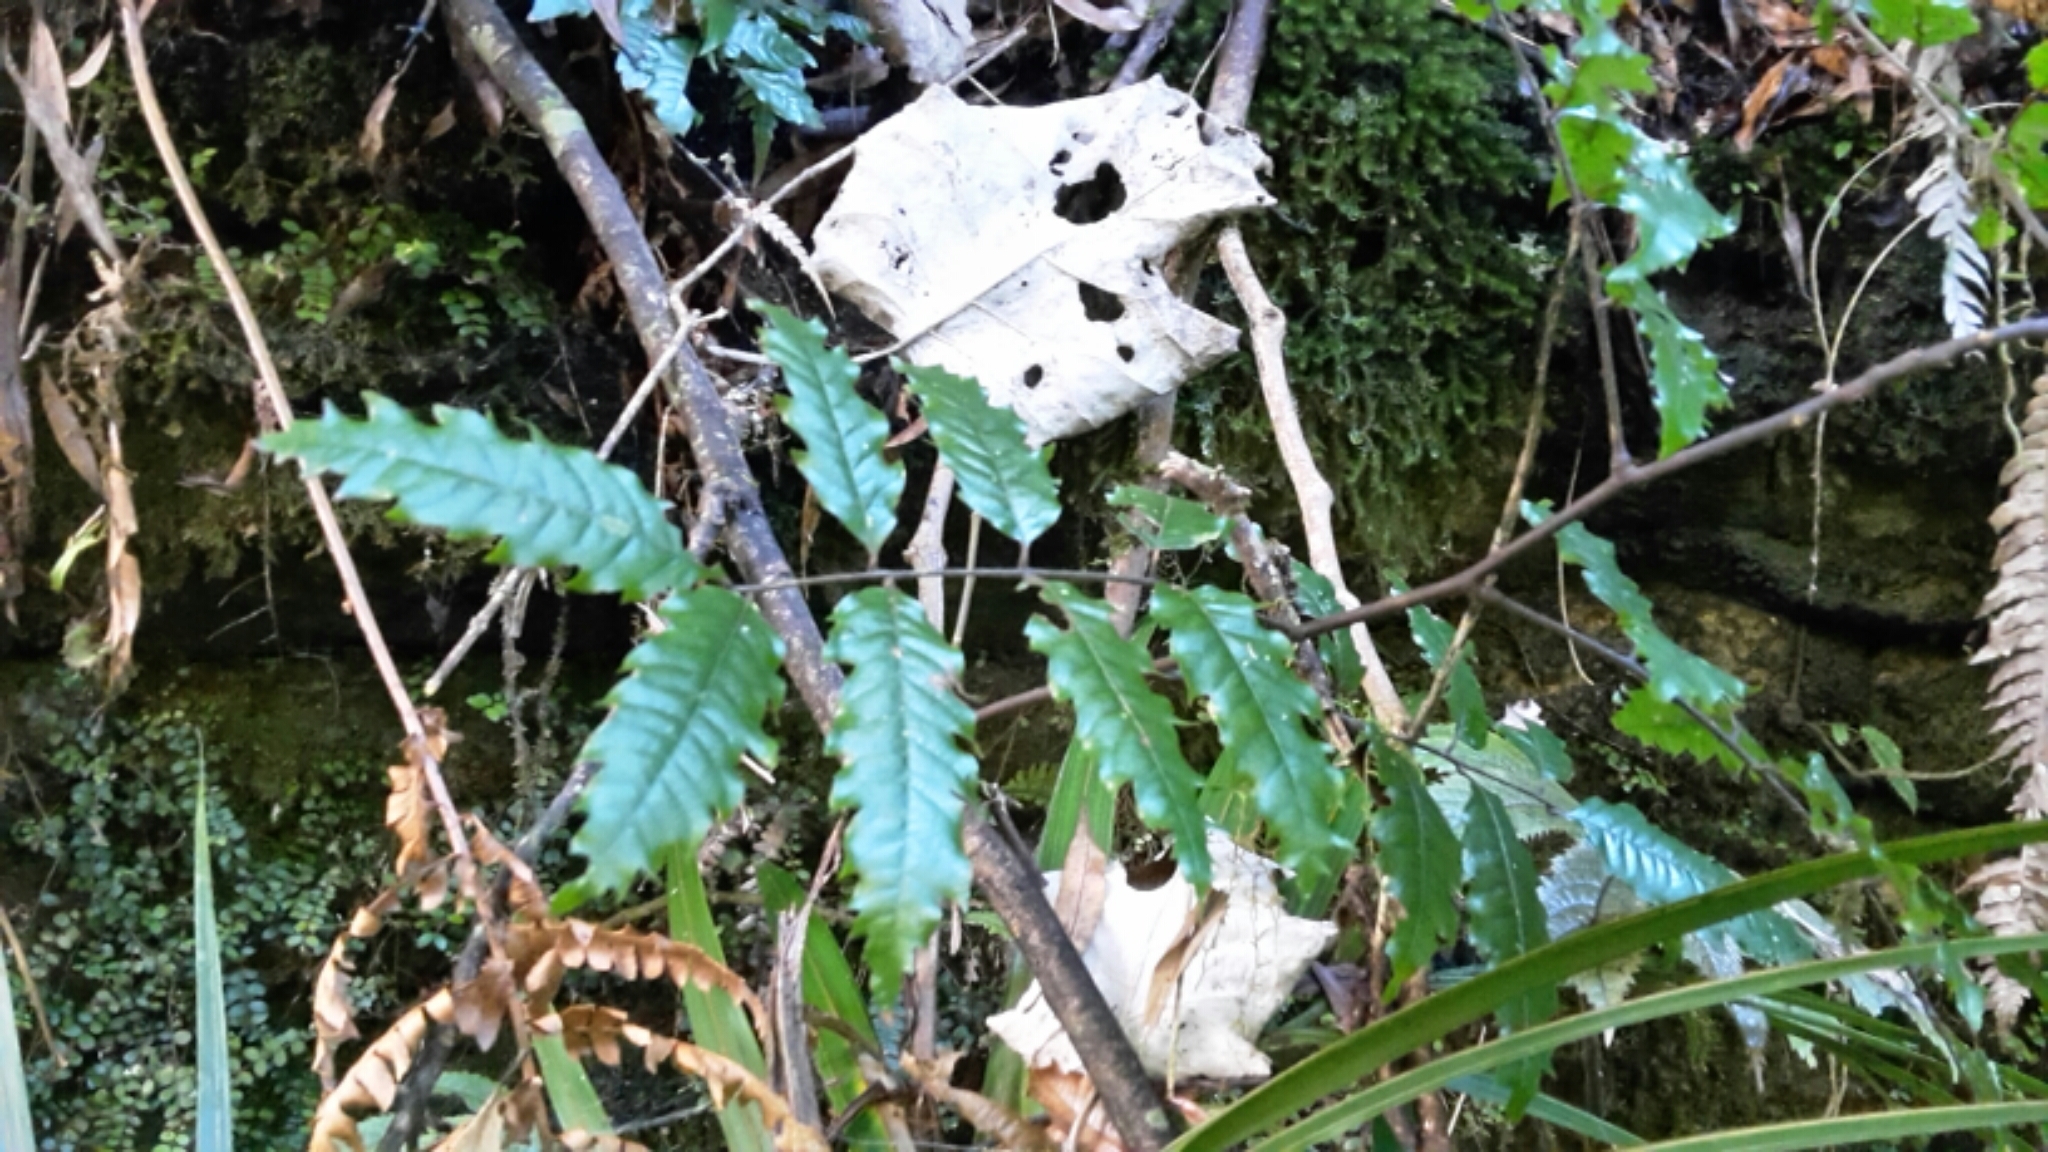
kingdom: Plantae
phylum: Tracheophyta
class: Magnoliopsida
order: Sapindales
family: Sapindaceae
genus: Alectryon
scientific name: Alectryon excelsus
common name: Three kings titoki
